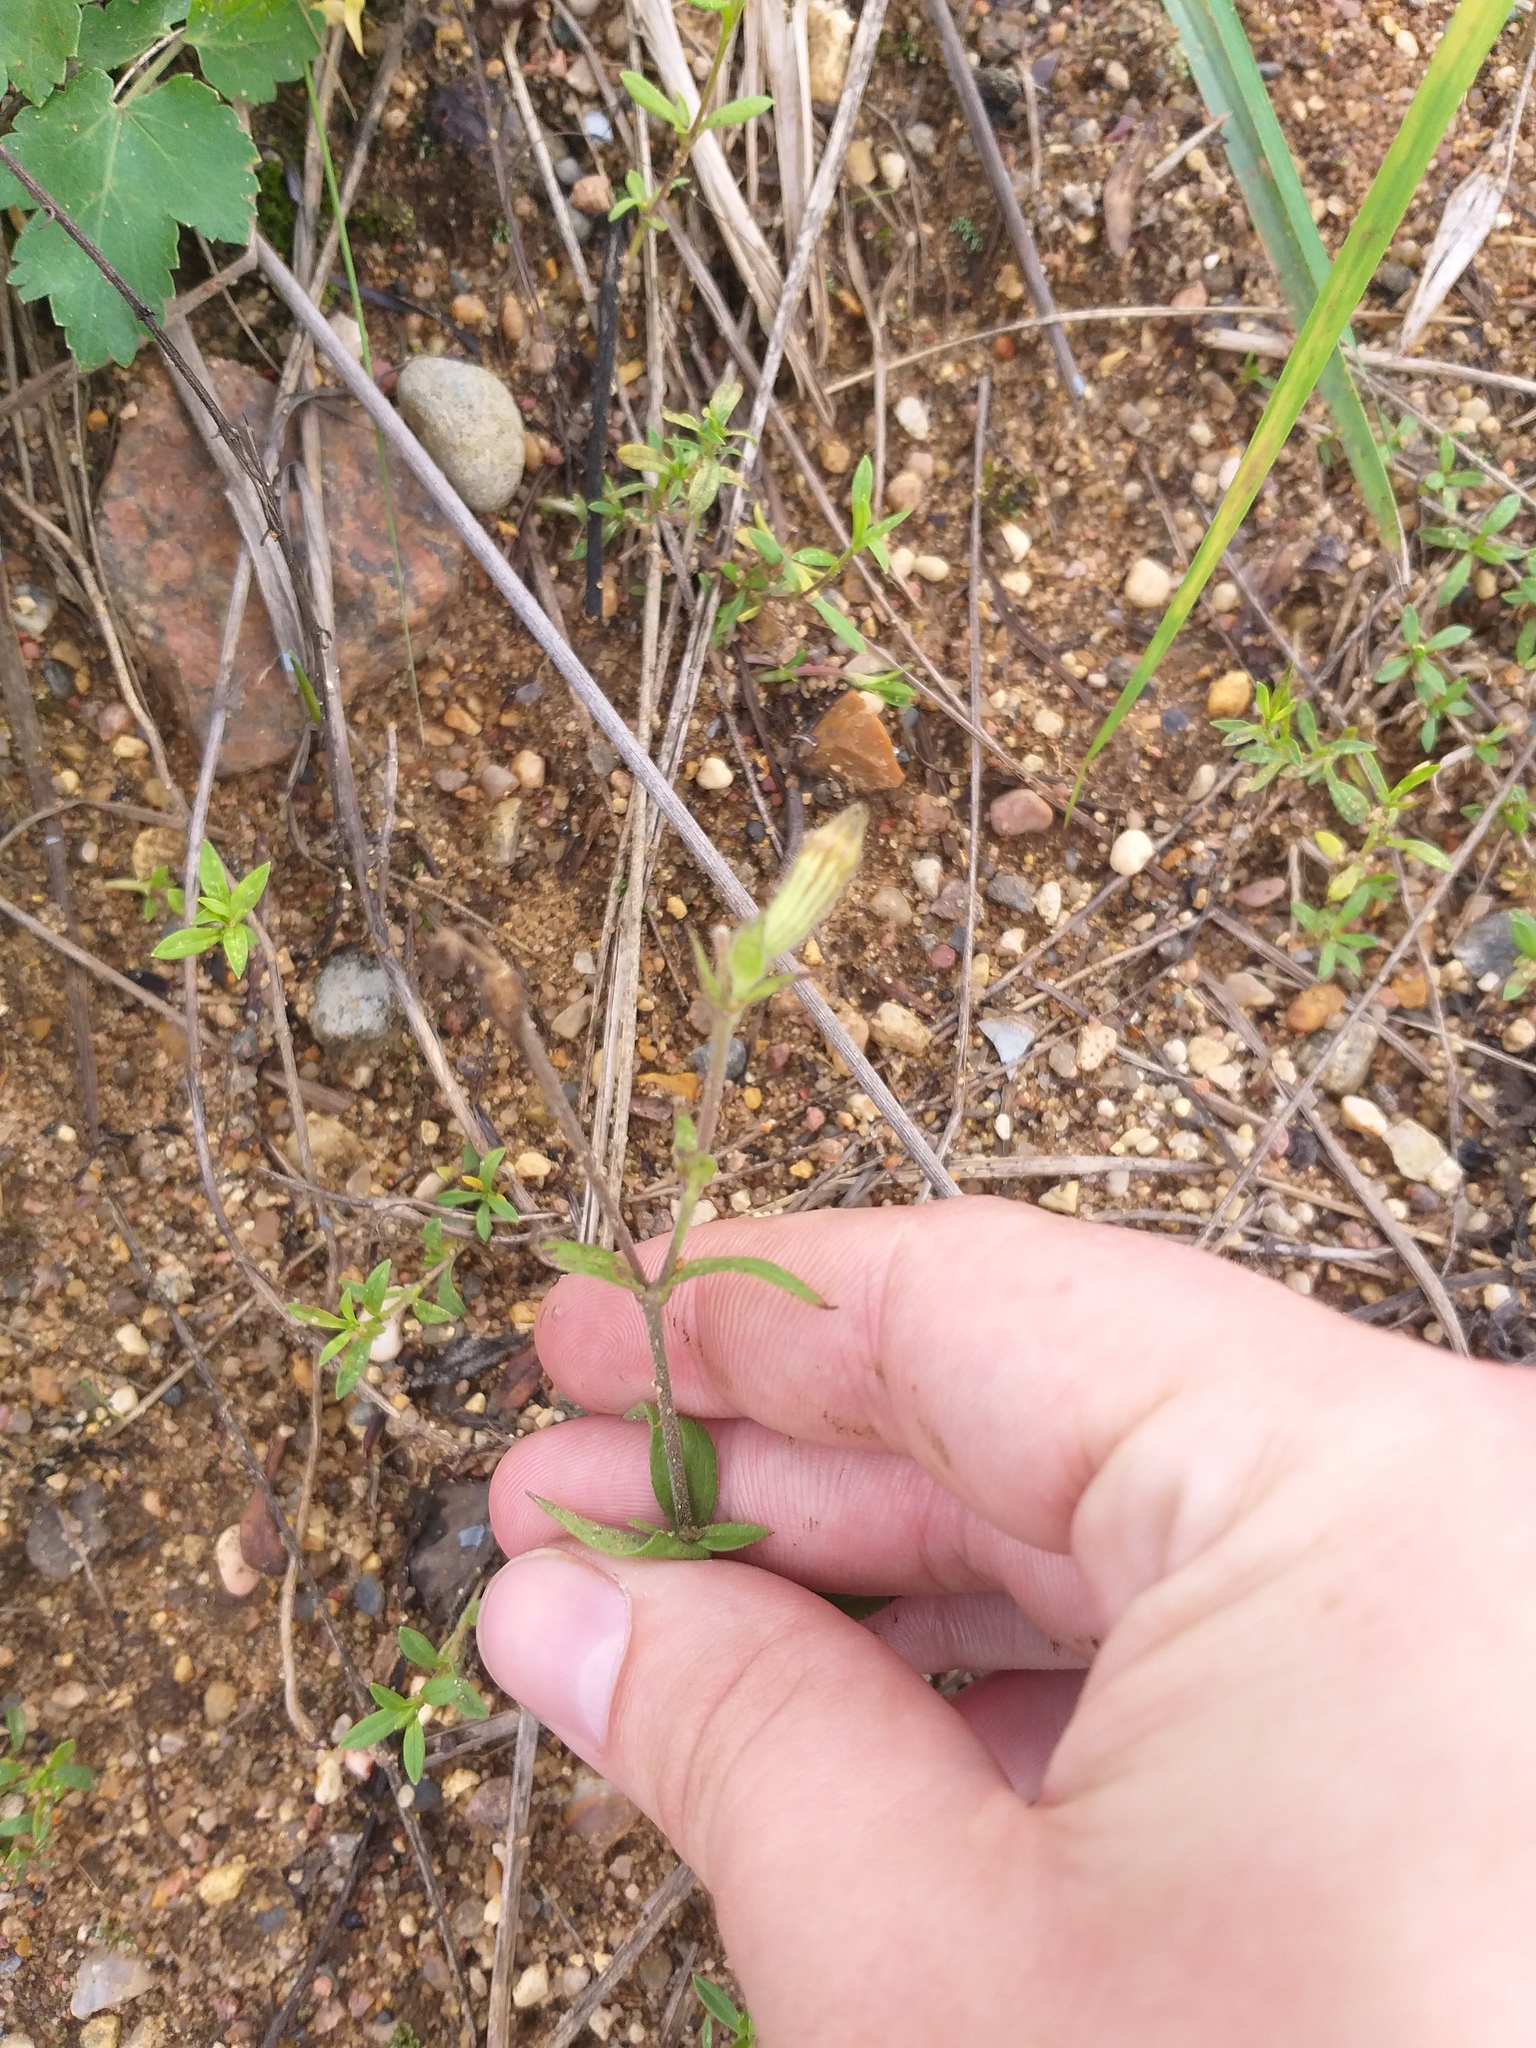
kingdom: Plantae
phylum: Tracheophyta
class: Magnoliopsida
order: Caryophyllales
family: Caryophyllaceae
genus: Silene
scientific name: Silene latifolia
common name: White campion
